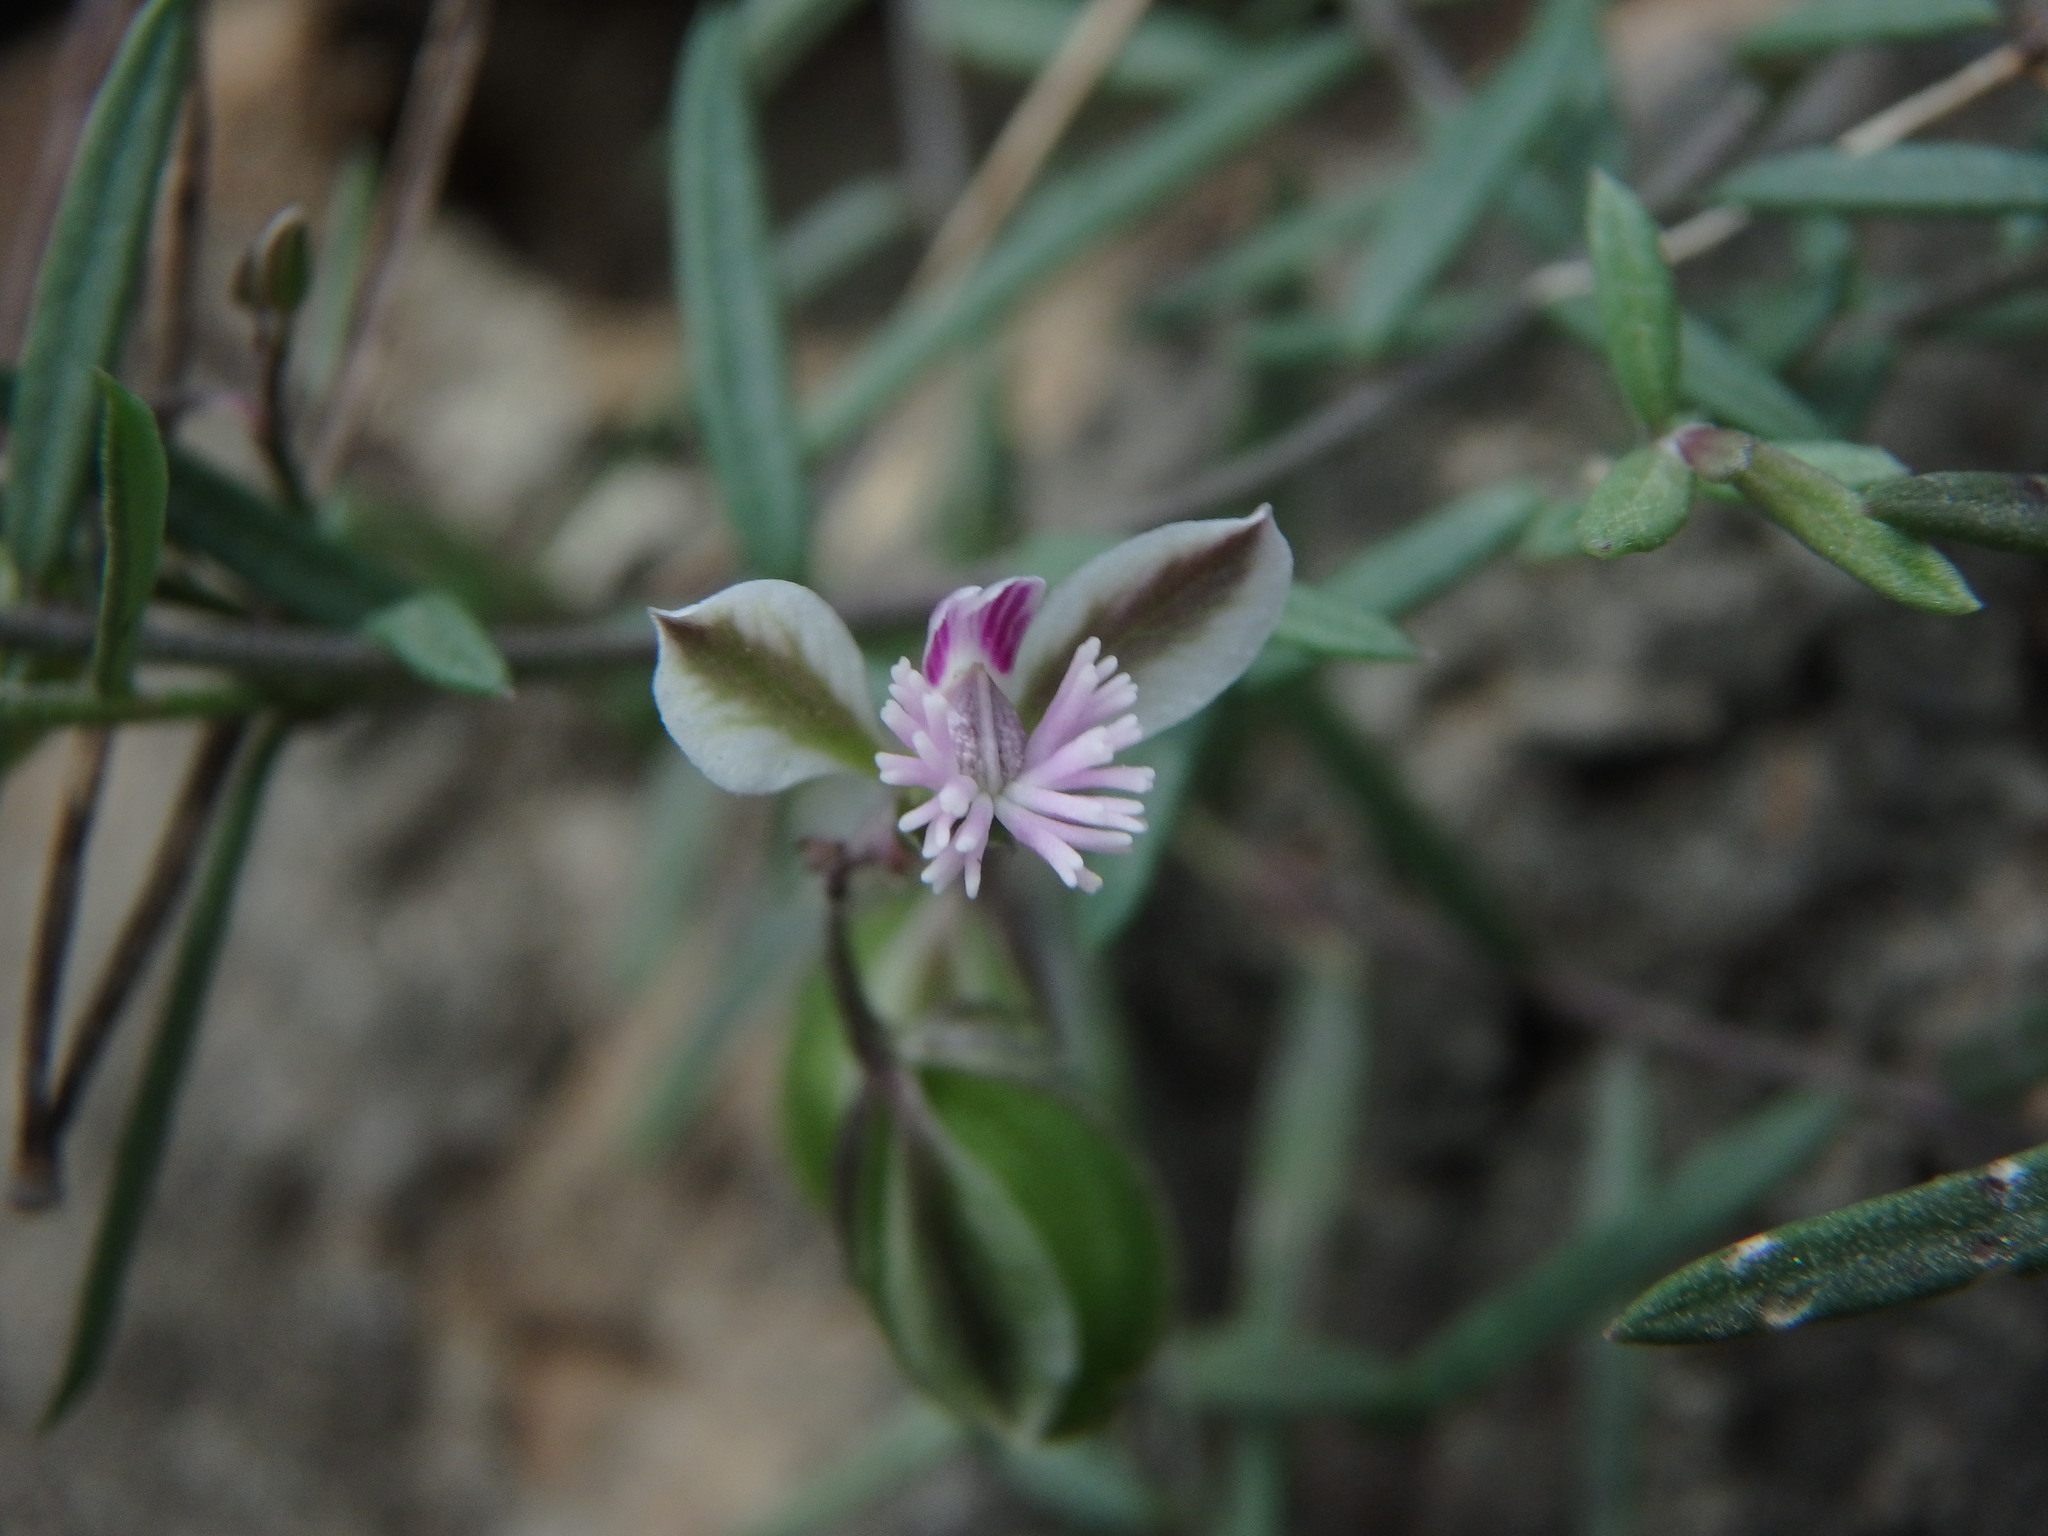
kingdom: Plantae
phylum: Tracheophyta
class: Magnoliopsida
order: Fabales
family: Polygalaceae
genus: Polygala
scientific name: Polygala rupestris
